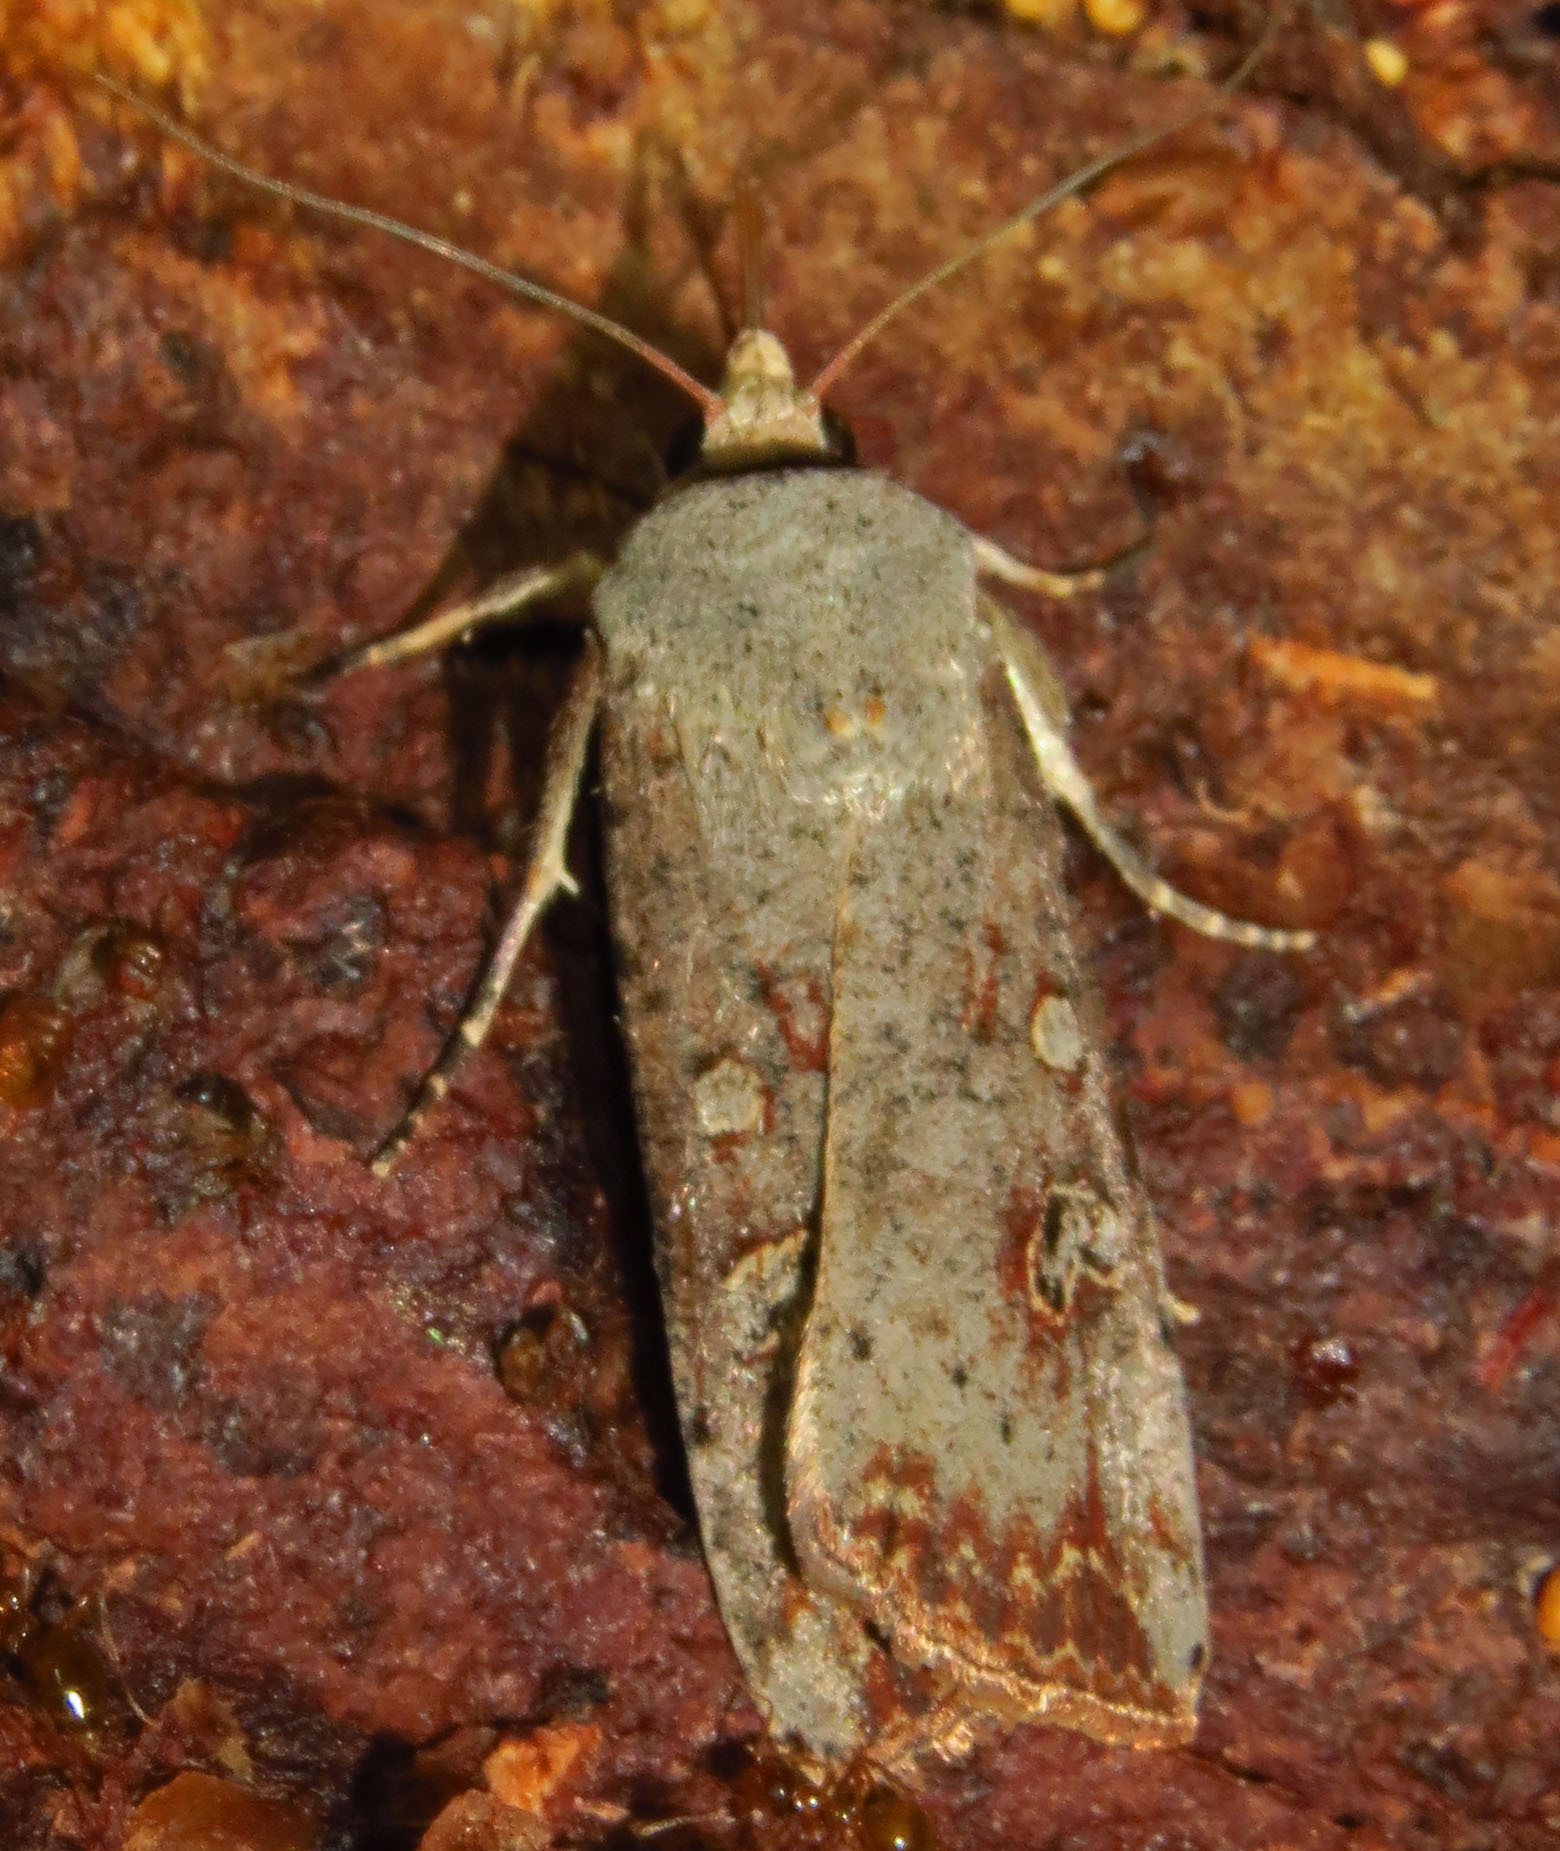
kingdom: Animalia
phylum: Arthropoda
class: Insecta
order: Lepidoptera
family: Noctuidae
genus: Anicla
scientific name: Anicla infecta
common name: Green cutworm
